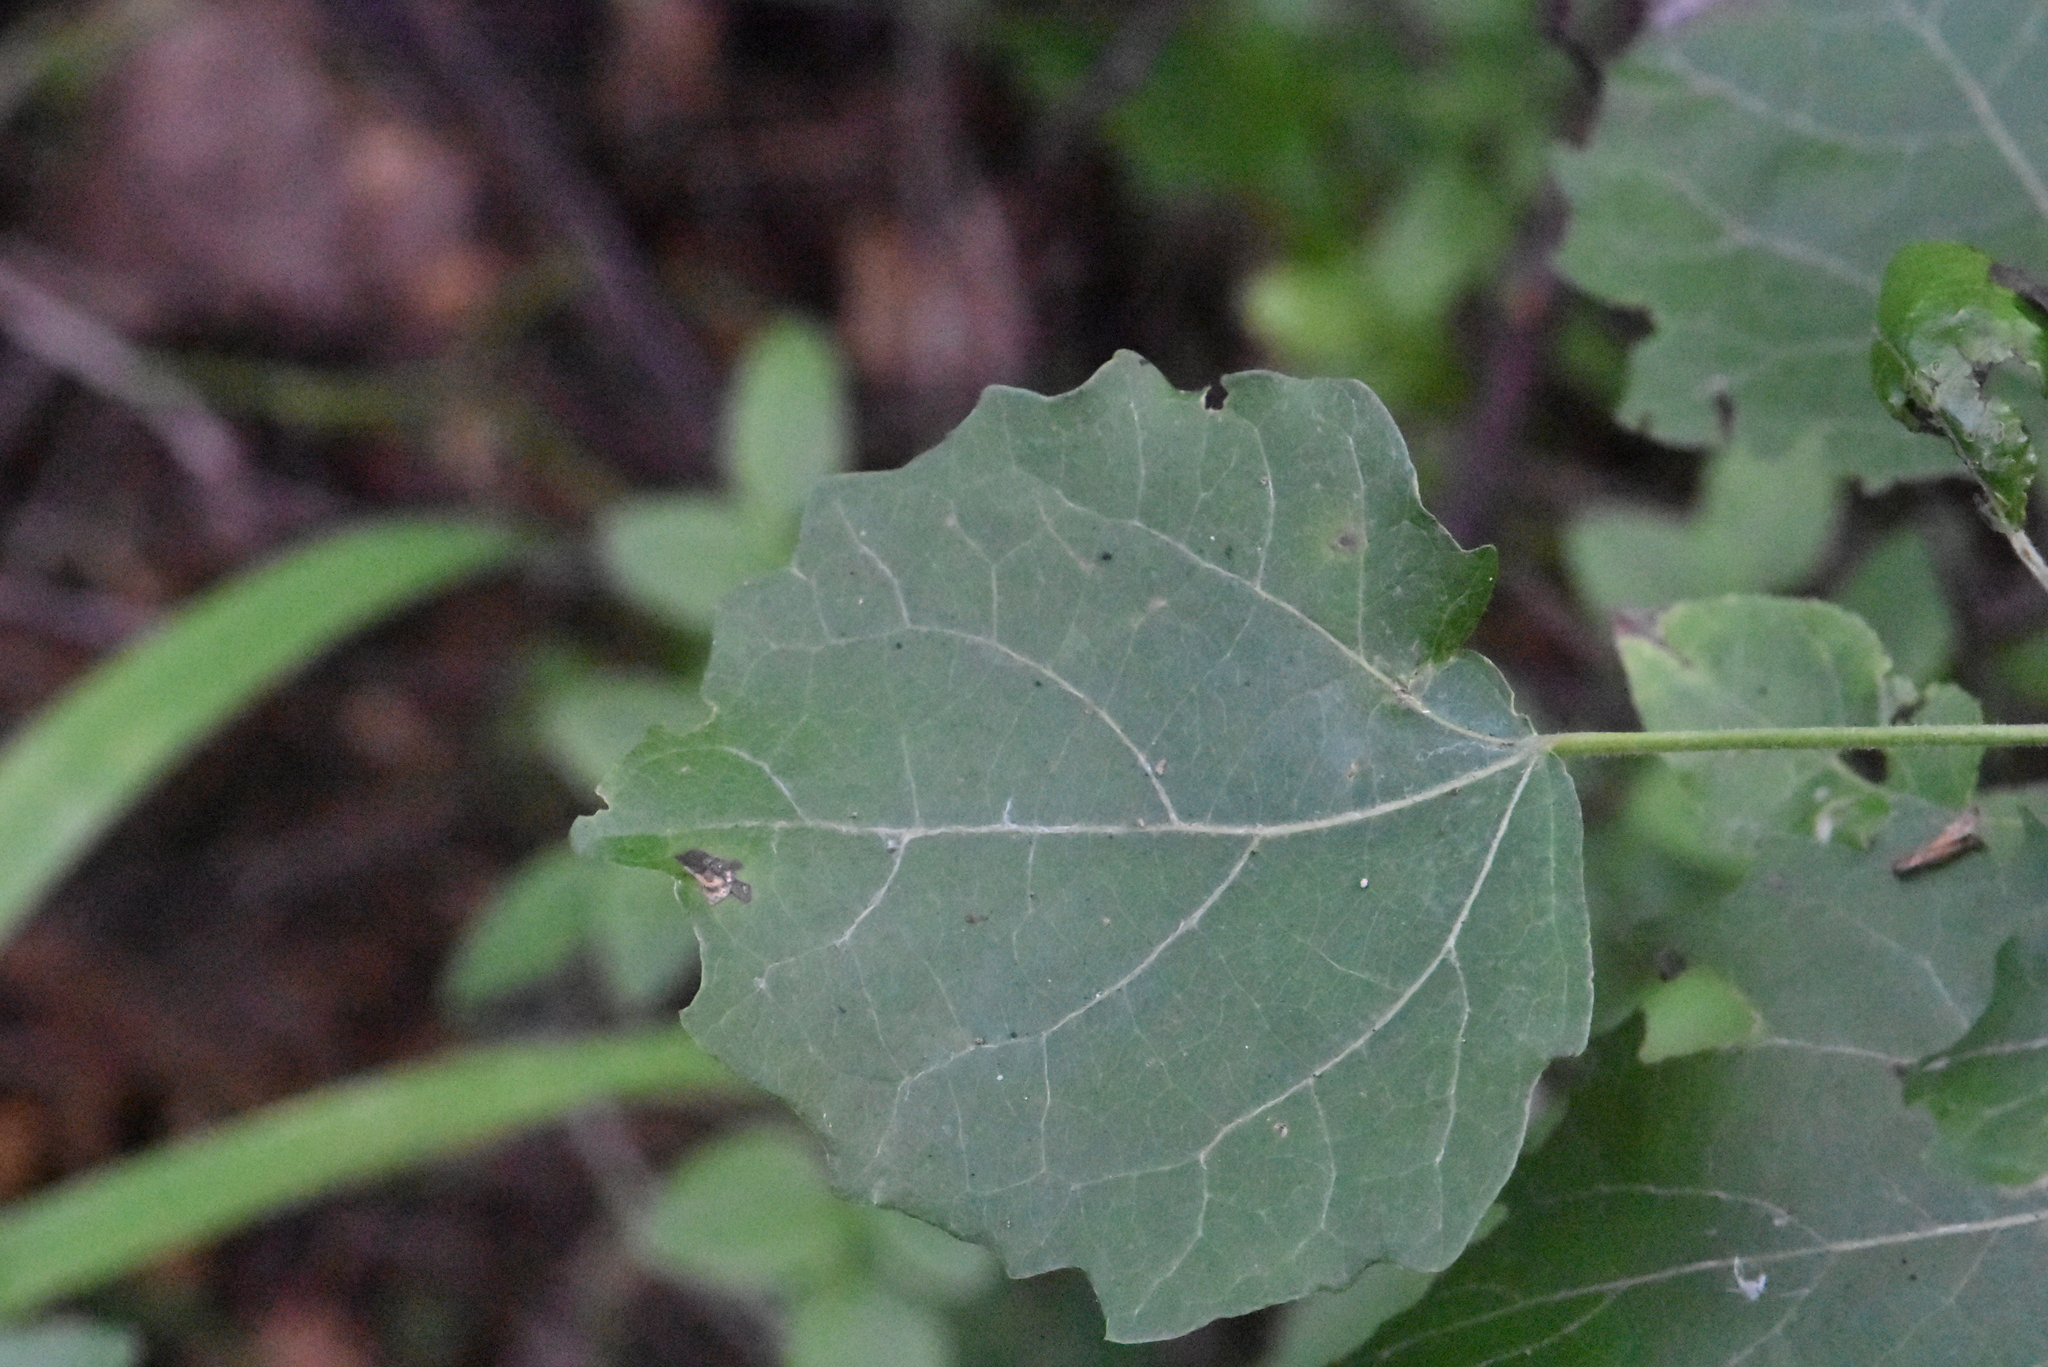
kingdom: Plantae
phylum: Tracheophyta
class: Magnoliopsida
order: Malpighiales
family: Salicaceae
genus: Populus
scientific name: Populus tremula
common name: European aspen
